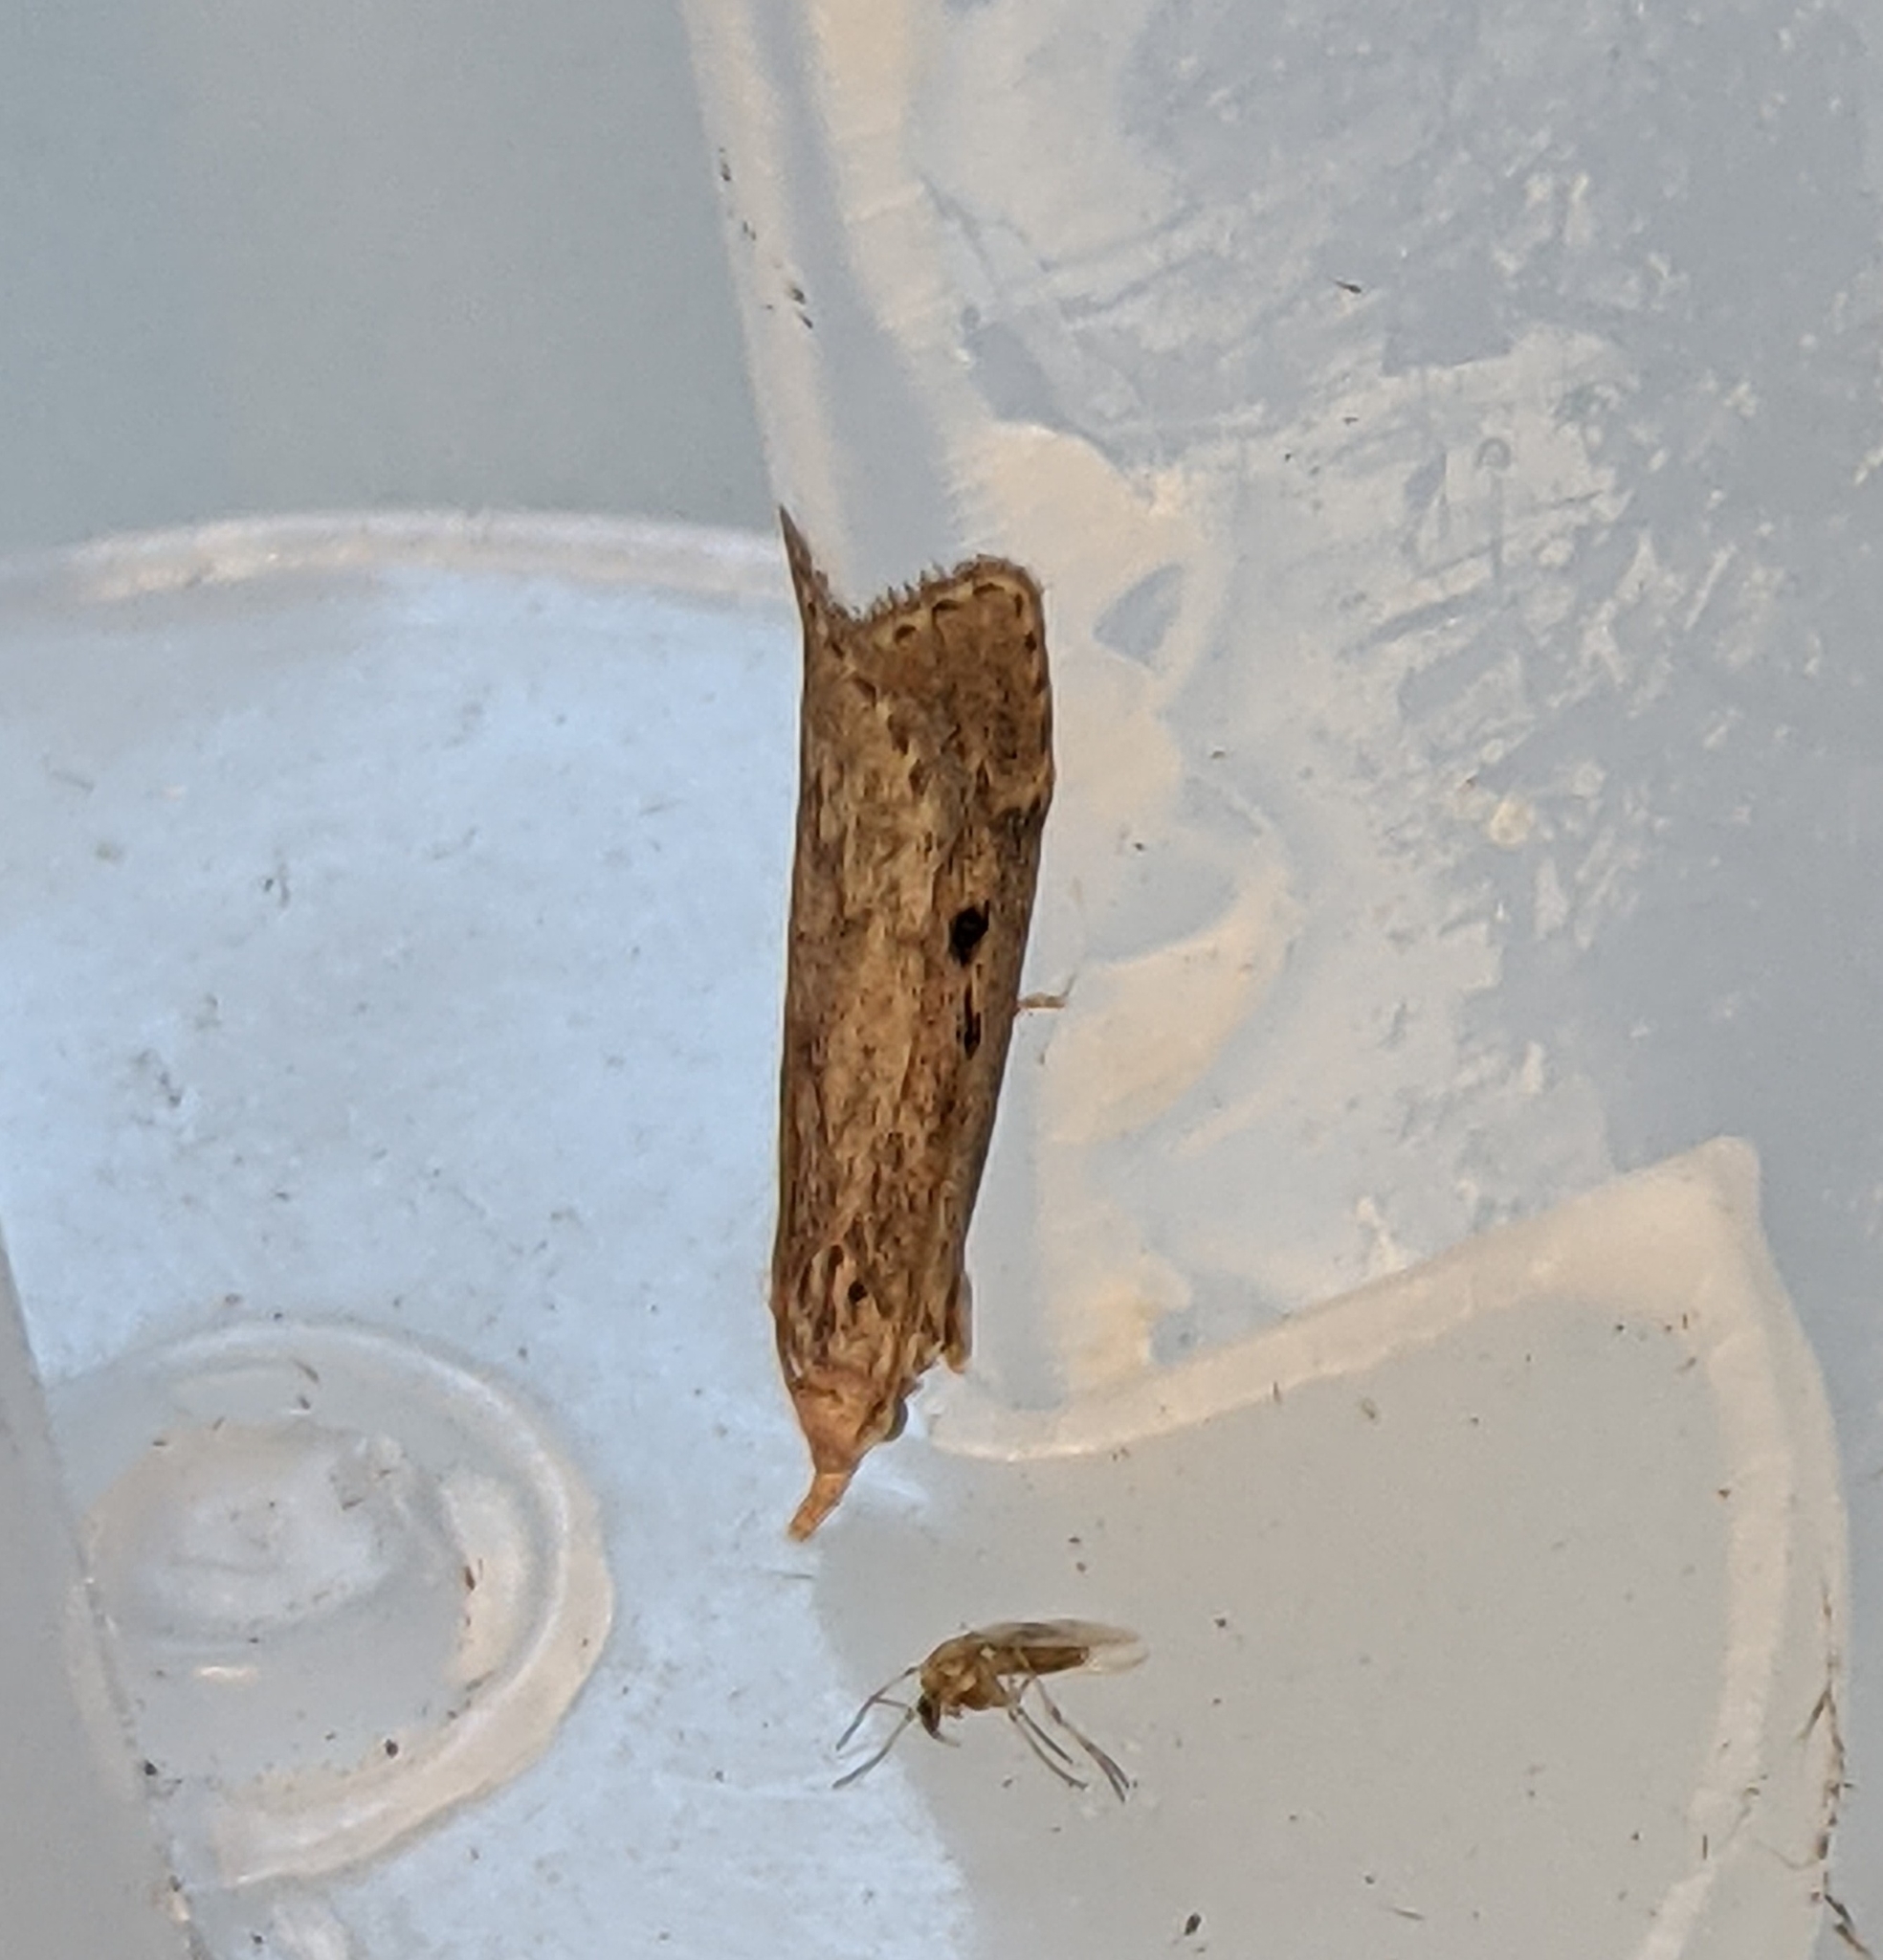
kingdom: Animalia
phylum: Arthropoda
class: Insecta
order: Lepidoptera
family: Pyralidae
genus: Aphomia
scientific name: Aphomia sociella
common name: Bee moth
